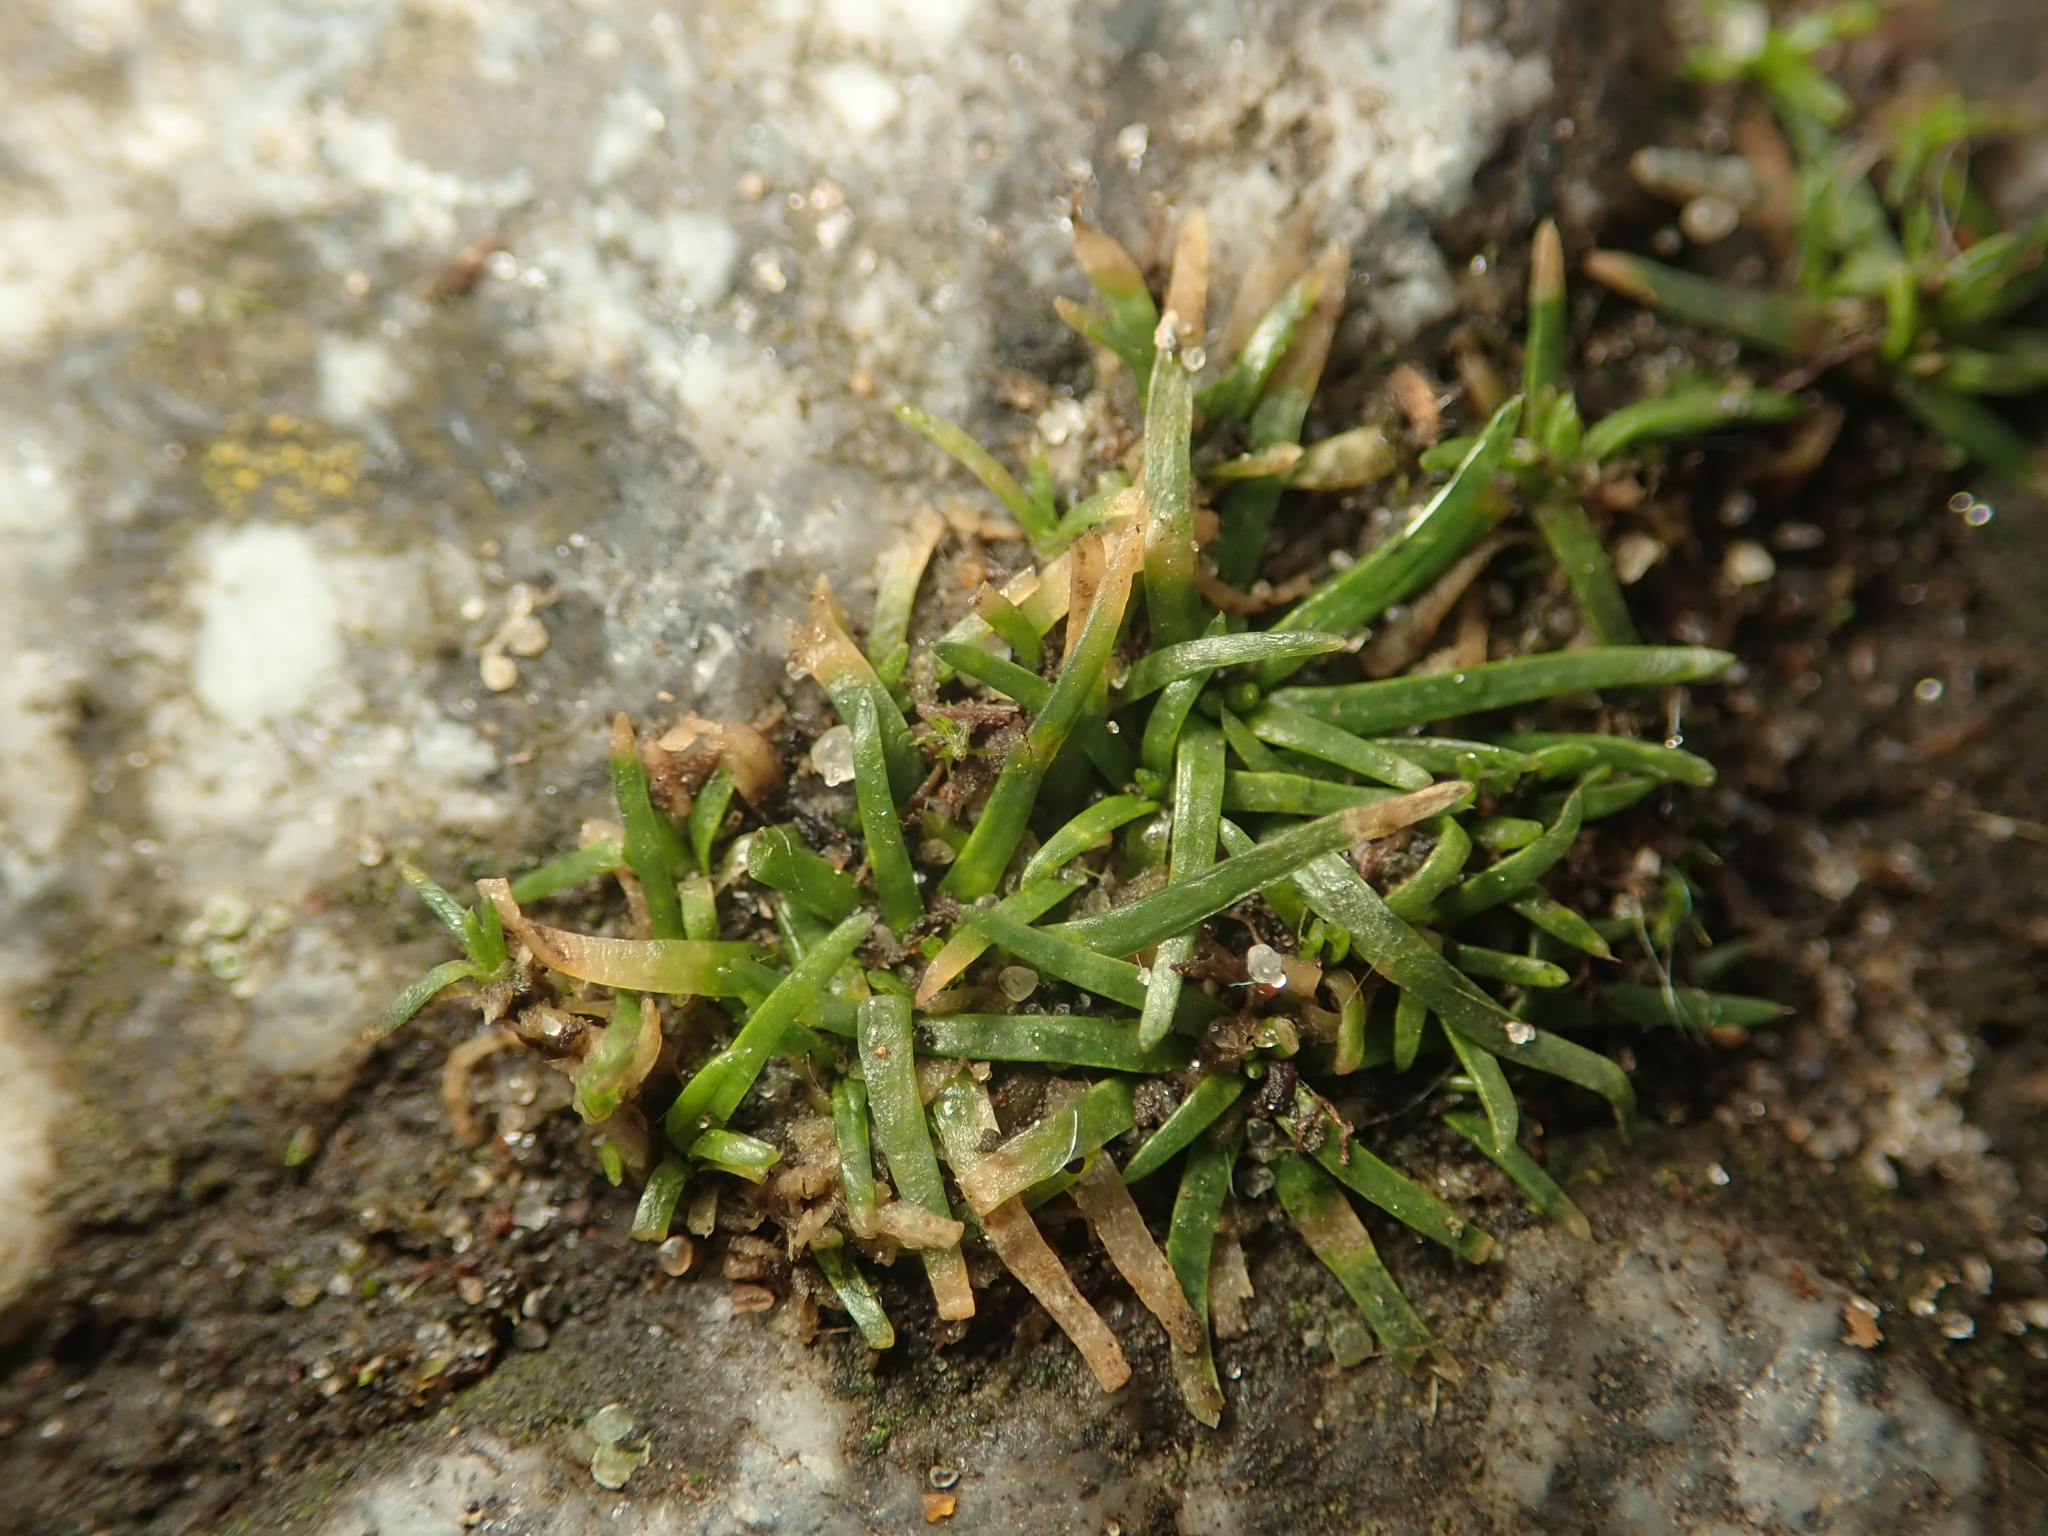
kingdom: Plantae
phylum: Tracheophyta
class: Magnoliopsida
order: Caryophyllales
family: Caryophyllaceae
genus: Sagina
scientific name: Sagina procumbens
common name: Procumbent pearlwort
